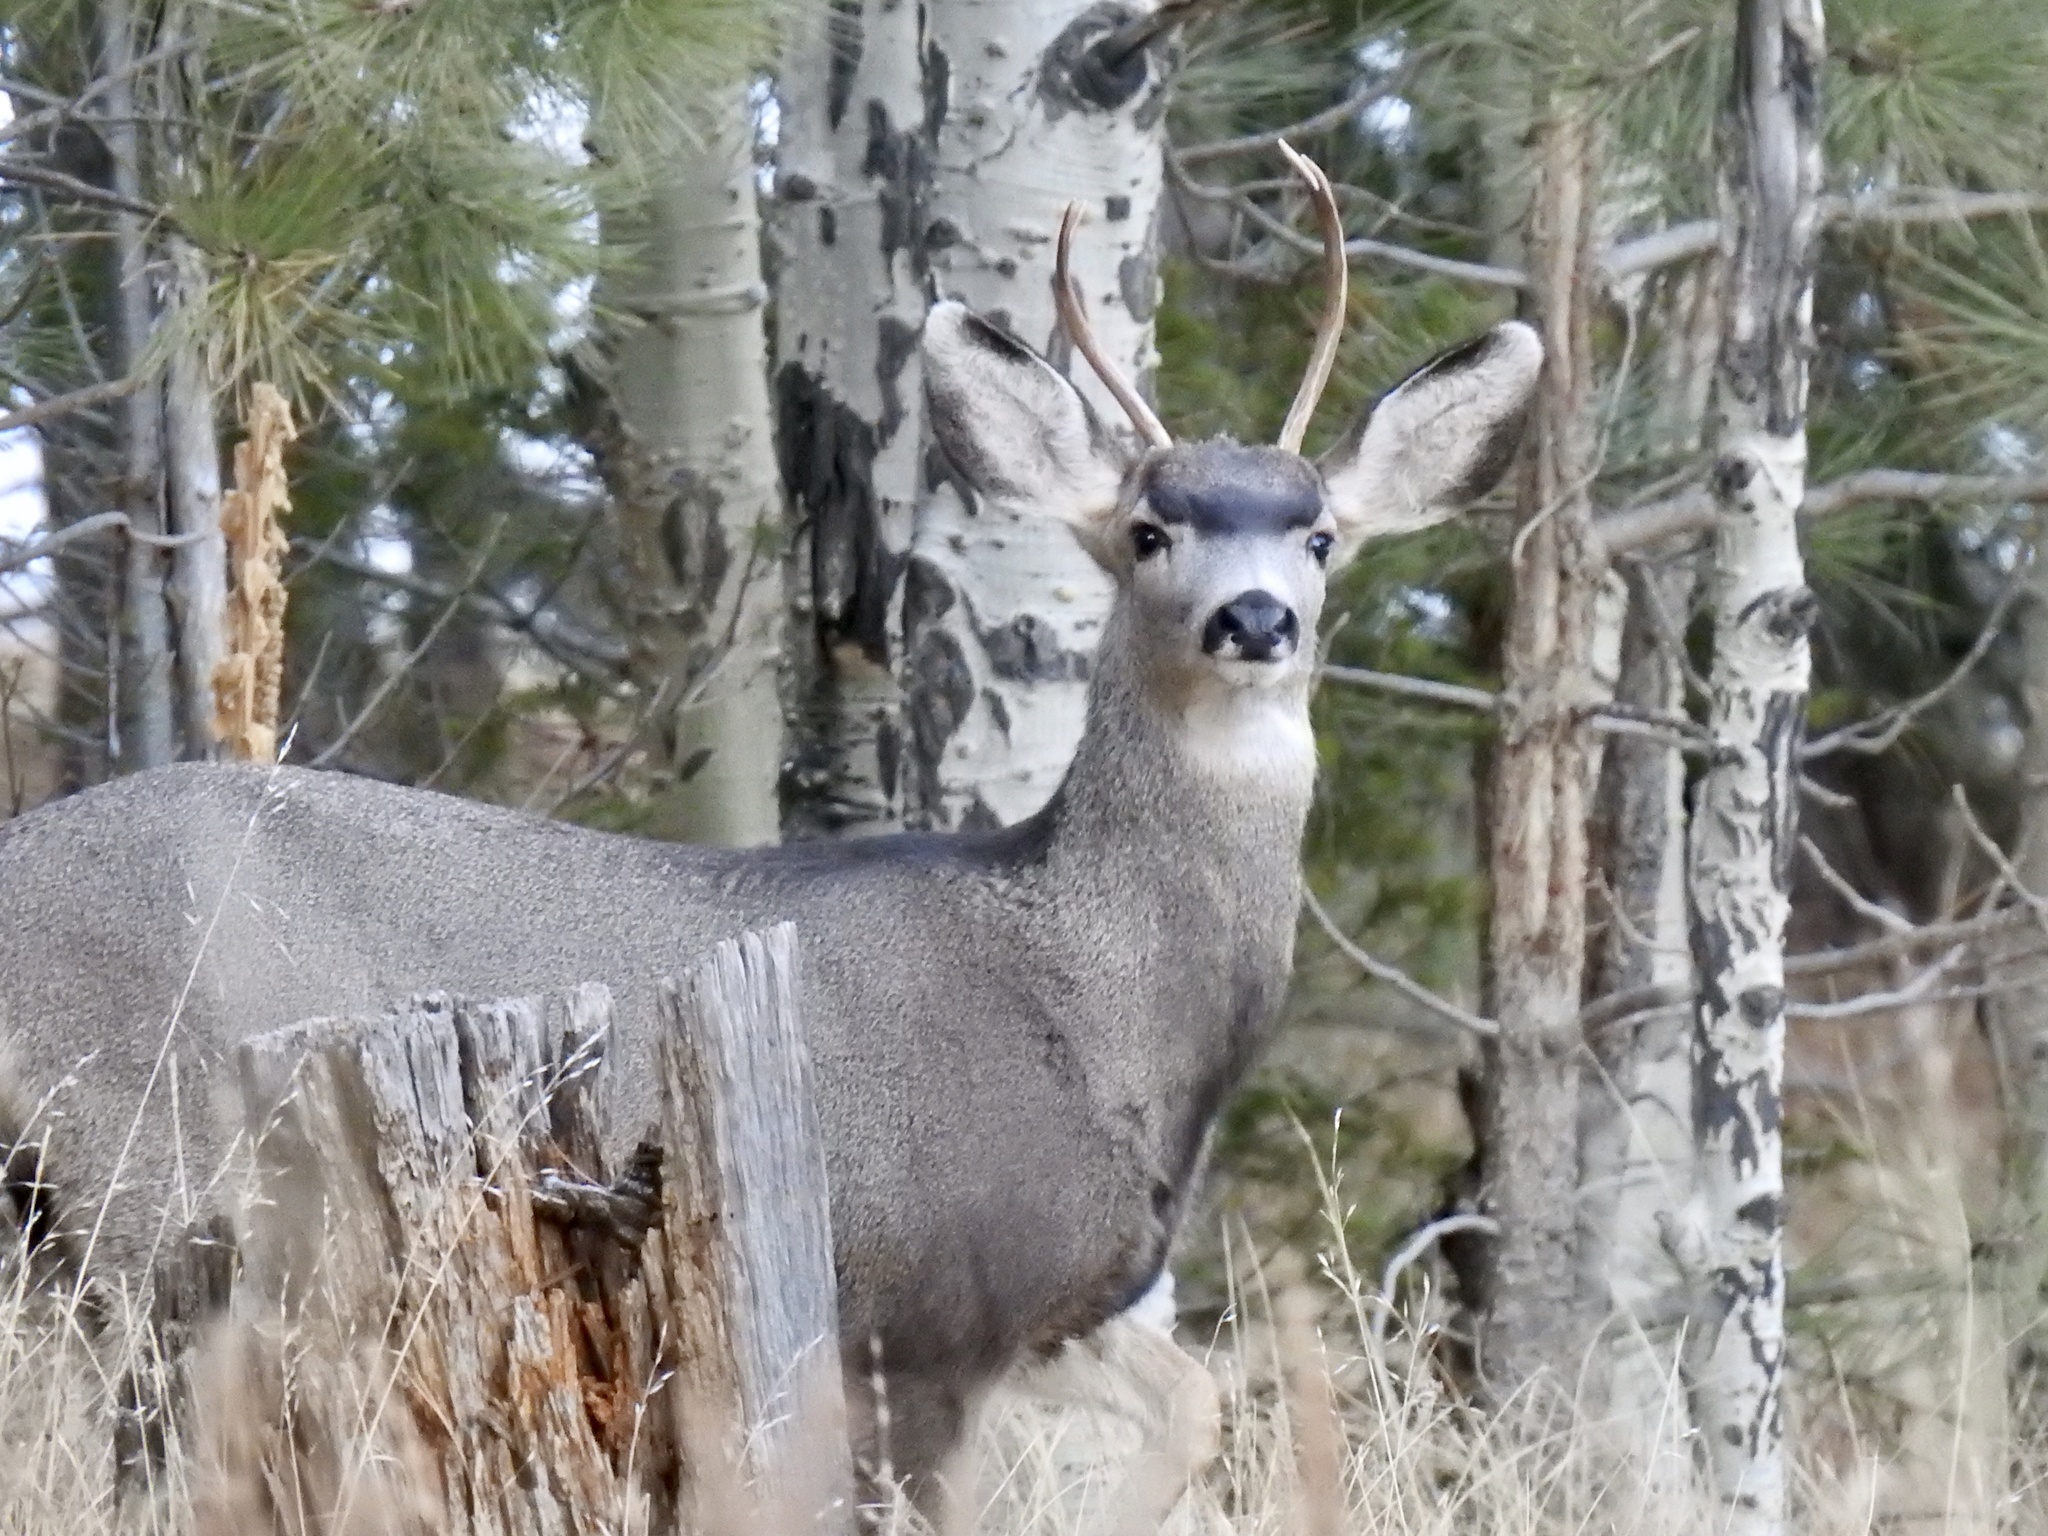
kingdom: Animalia
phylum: Chordata
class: Mammalia
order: Artiodactyla
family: Cervidae
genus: Odocoileus
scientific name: Odocoileus hemionus
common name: Mule deer
